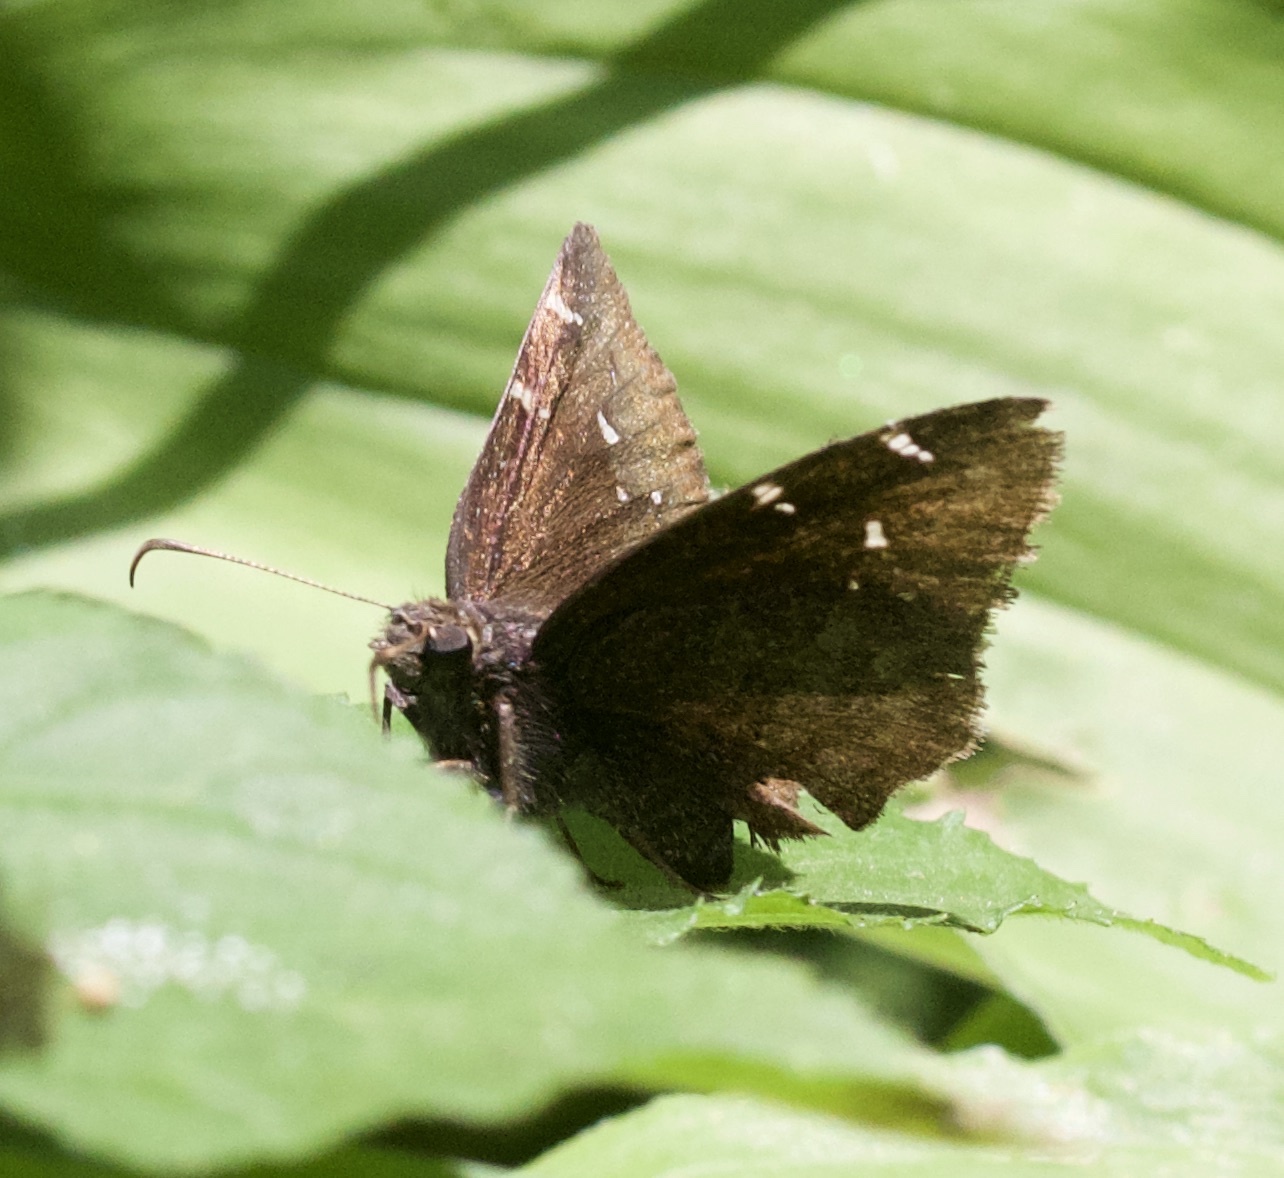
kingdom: Animalia
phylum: Arthropoda
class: Insecta
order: Lepidoptera
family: Hesperiidae
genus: Thorybes
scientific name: Thorybes pylades
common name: Northern cloudywing
